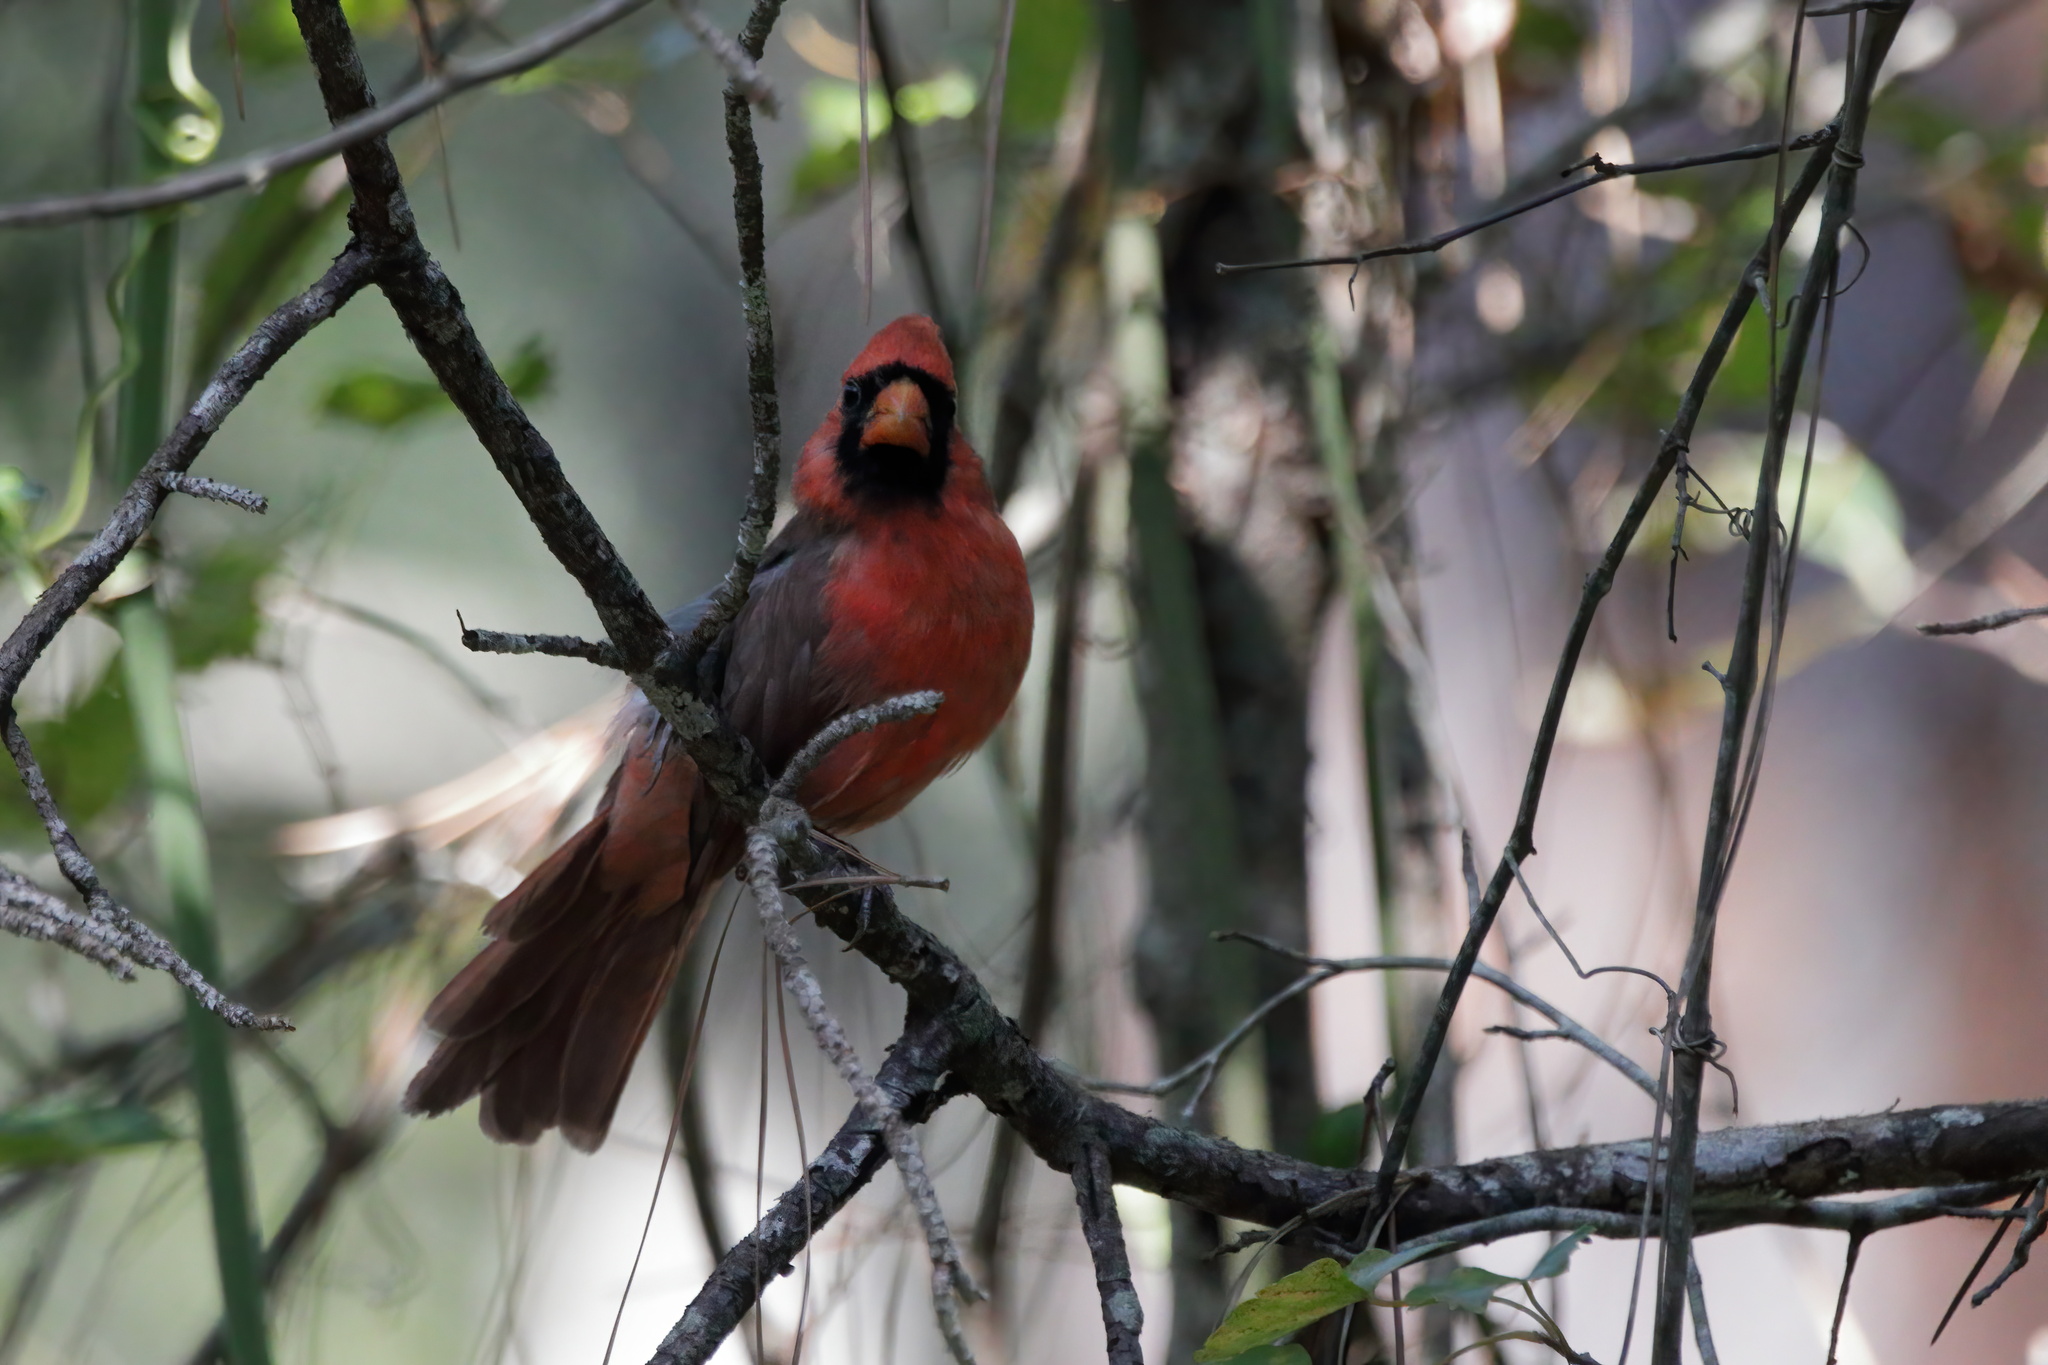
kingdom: Animalia
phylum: Chordata
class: Aves
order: Passeriformes
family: Cardinalidae
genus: Cardinalis
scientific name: Cardinalis cardinalis
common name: Northern cardinal
